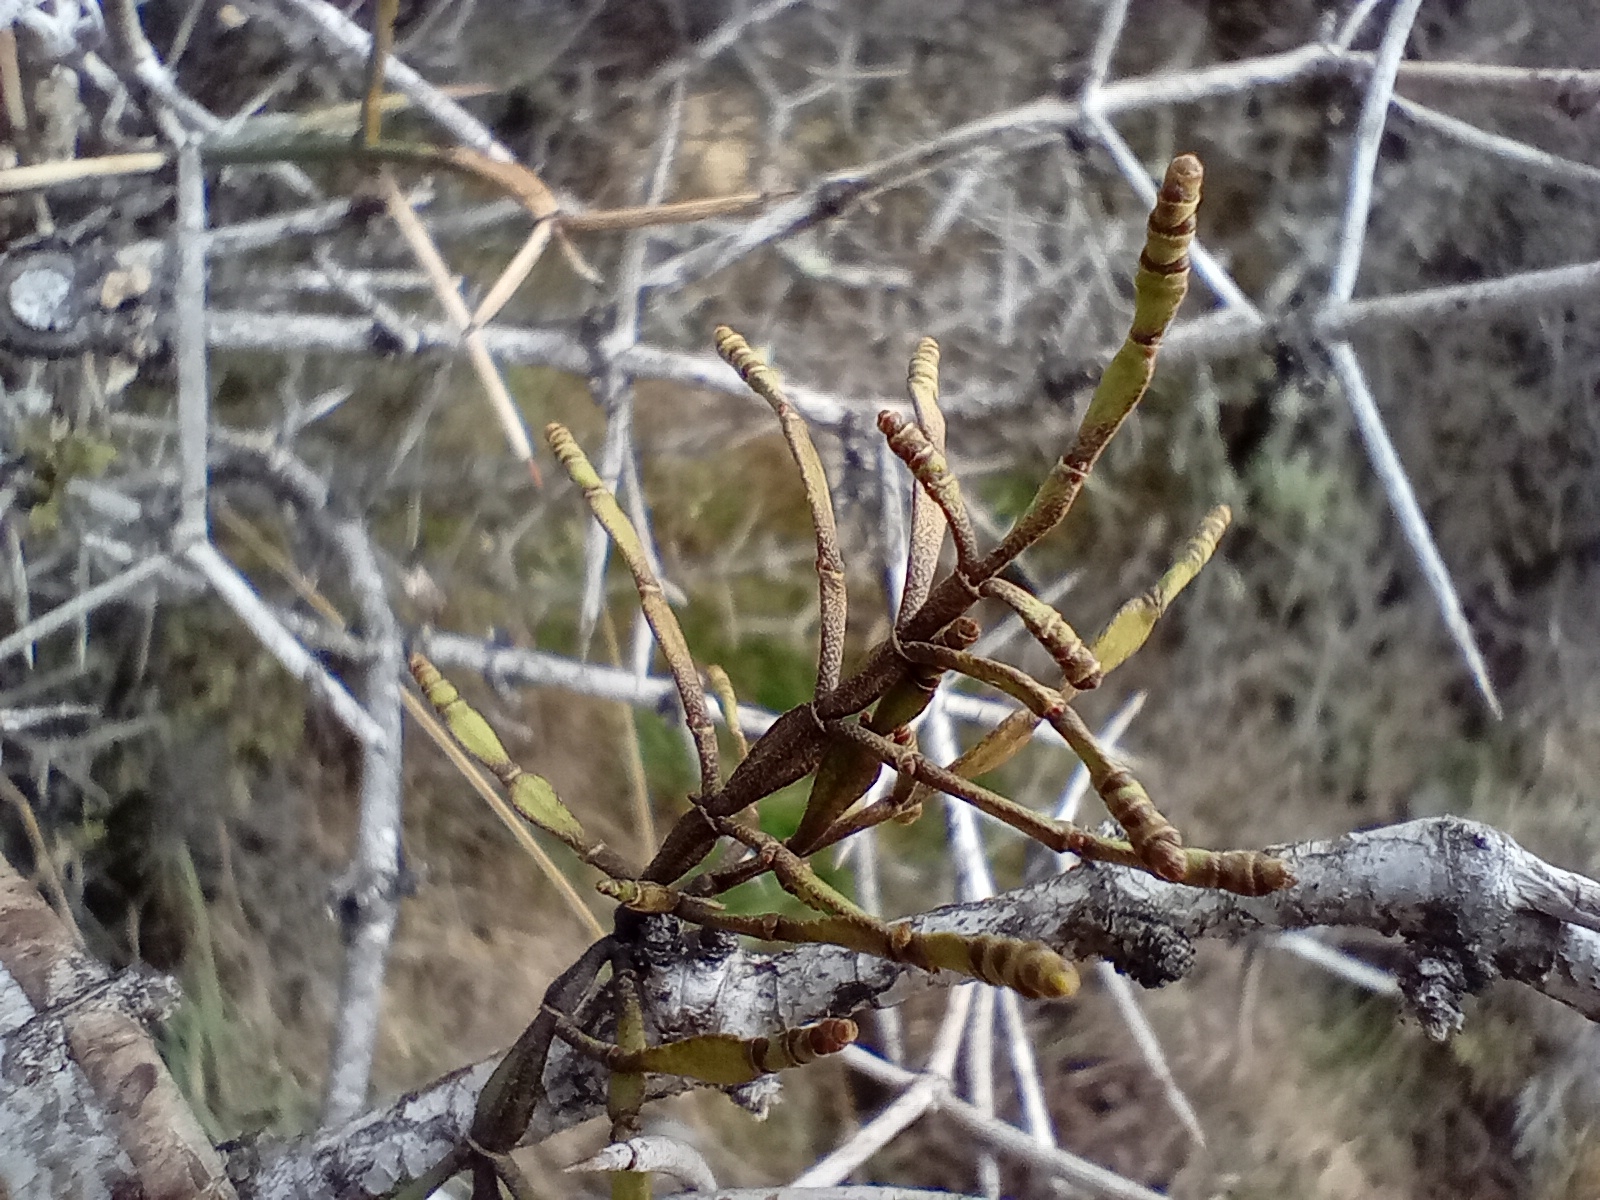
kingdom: Plantae
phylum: Tracheophyta
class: Magnoliopsida
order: Santalales
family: Viscaceae
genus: Korthalsella
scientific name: Korthalsella clavata
